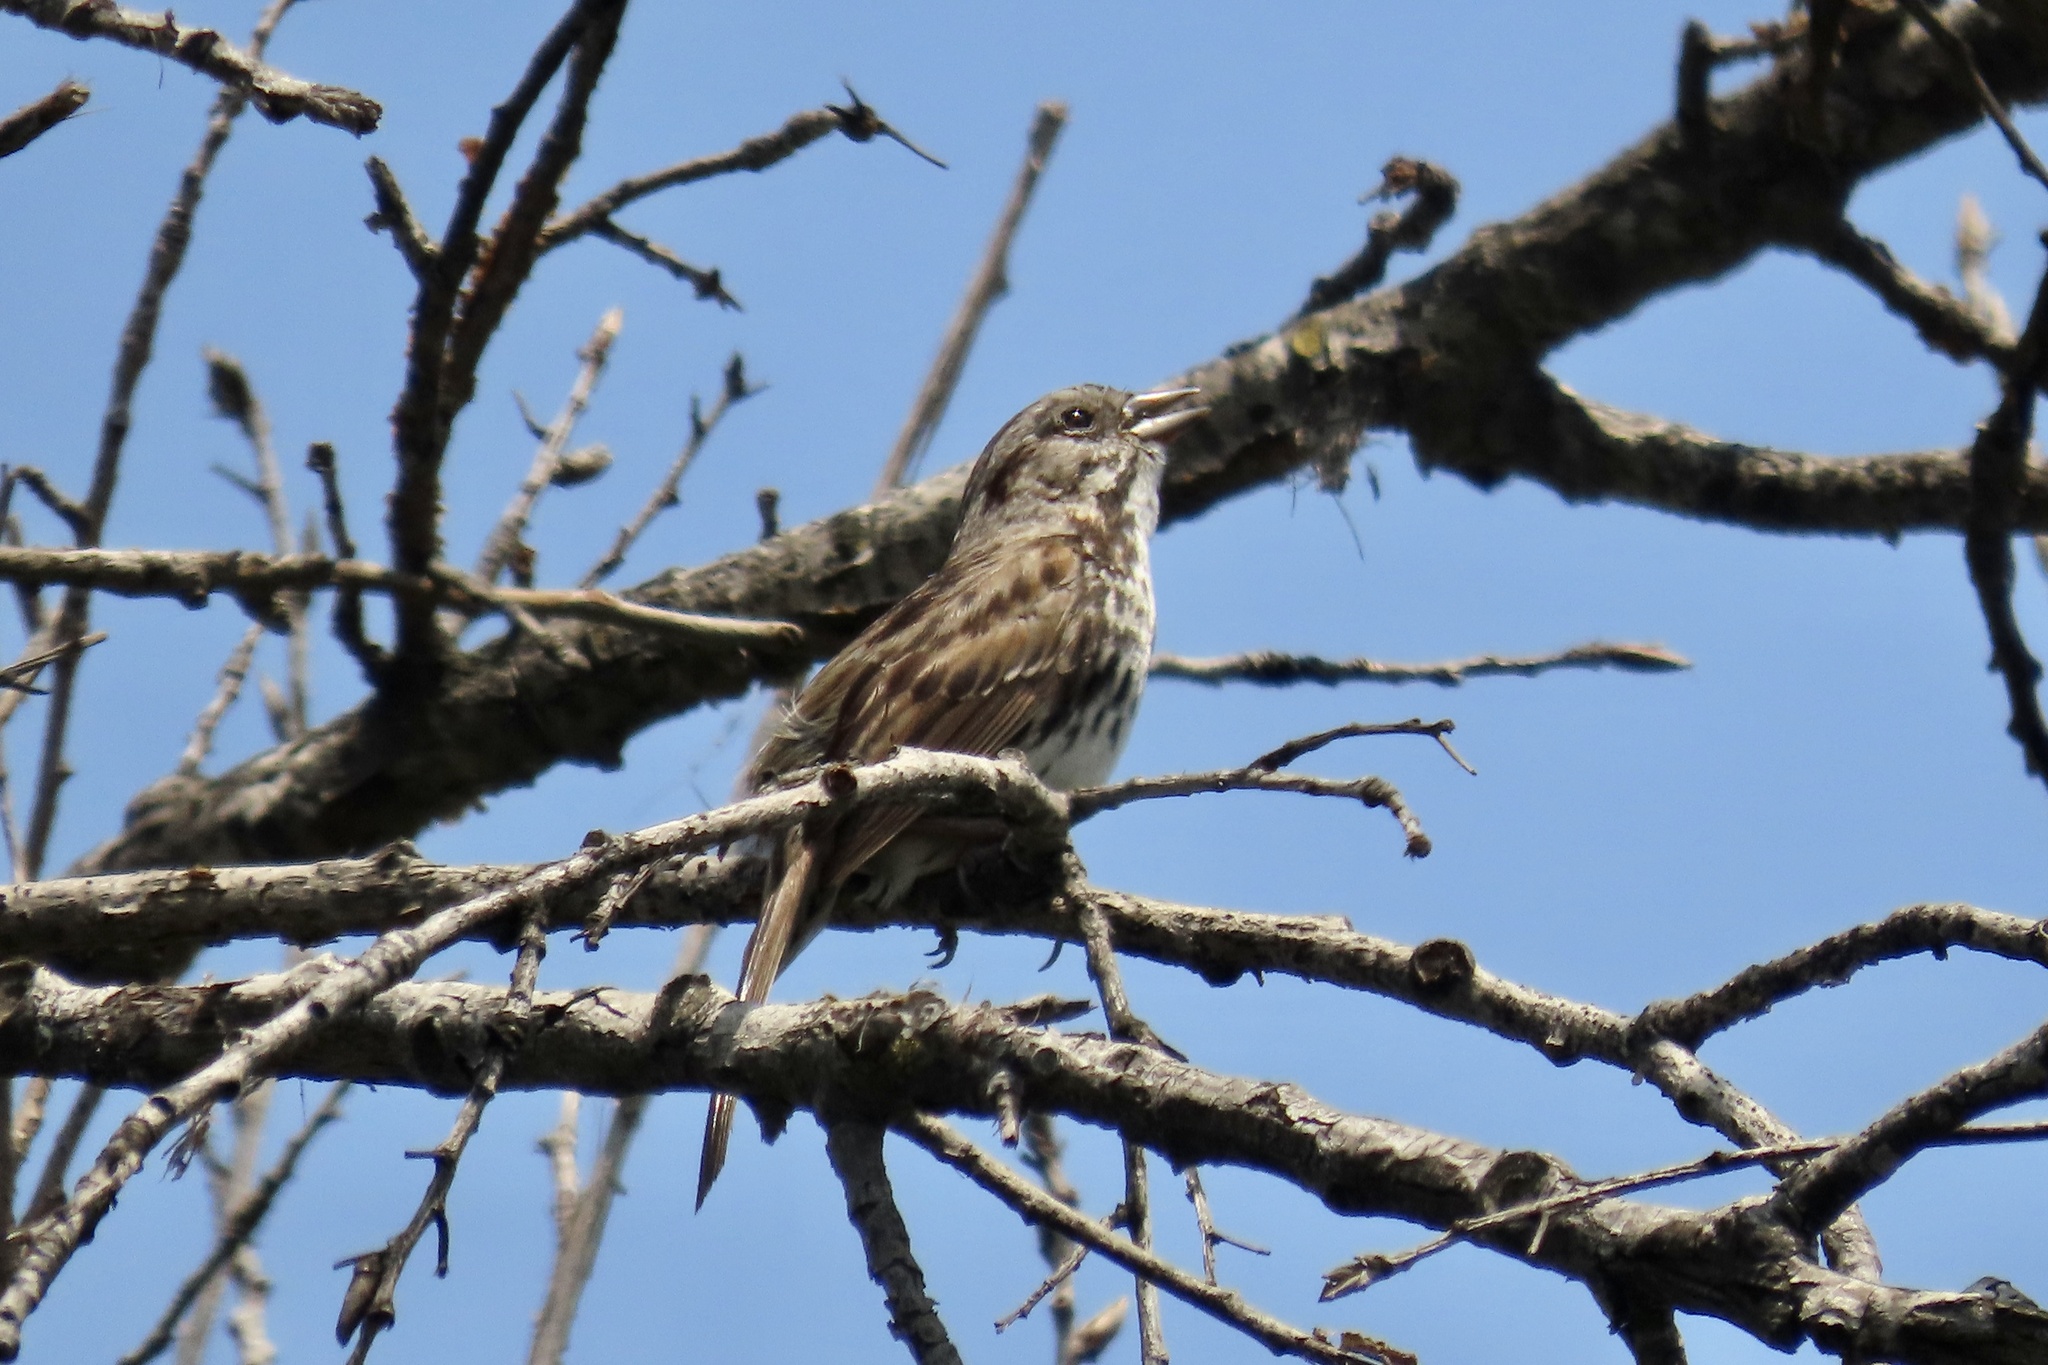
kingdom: Animalia
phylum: Chordata
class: Aves
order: Passeriformes
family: Passerellidae
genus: Melospiza
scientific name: Melospiza melodia
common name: Song sparrow
